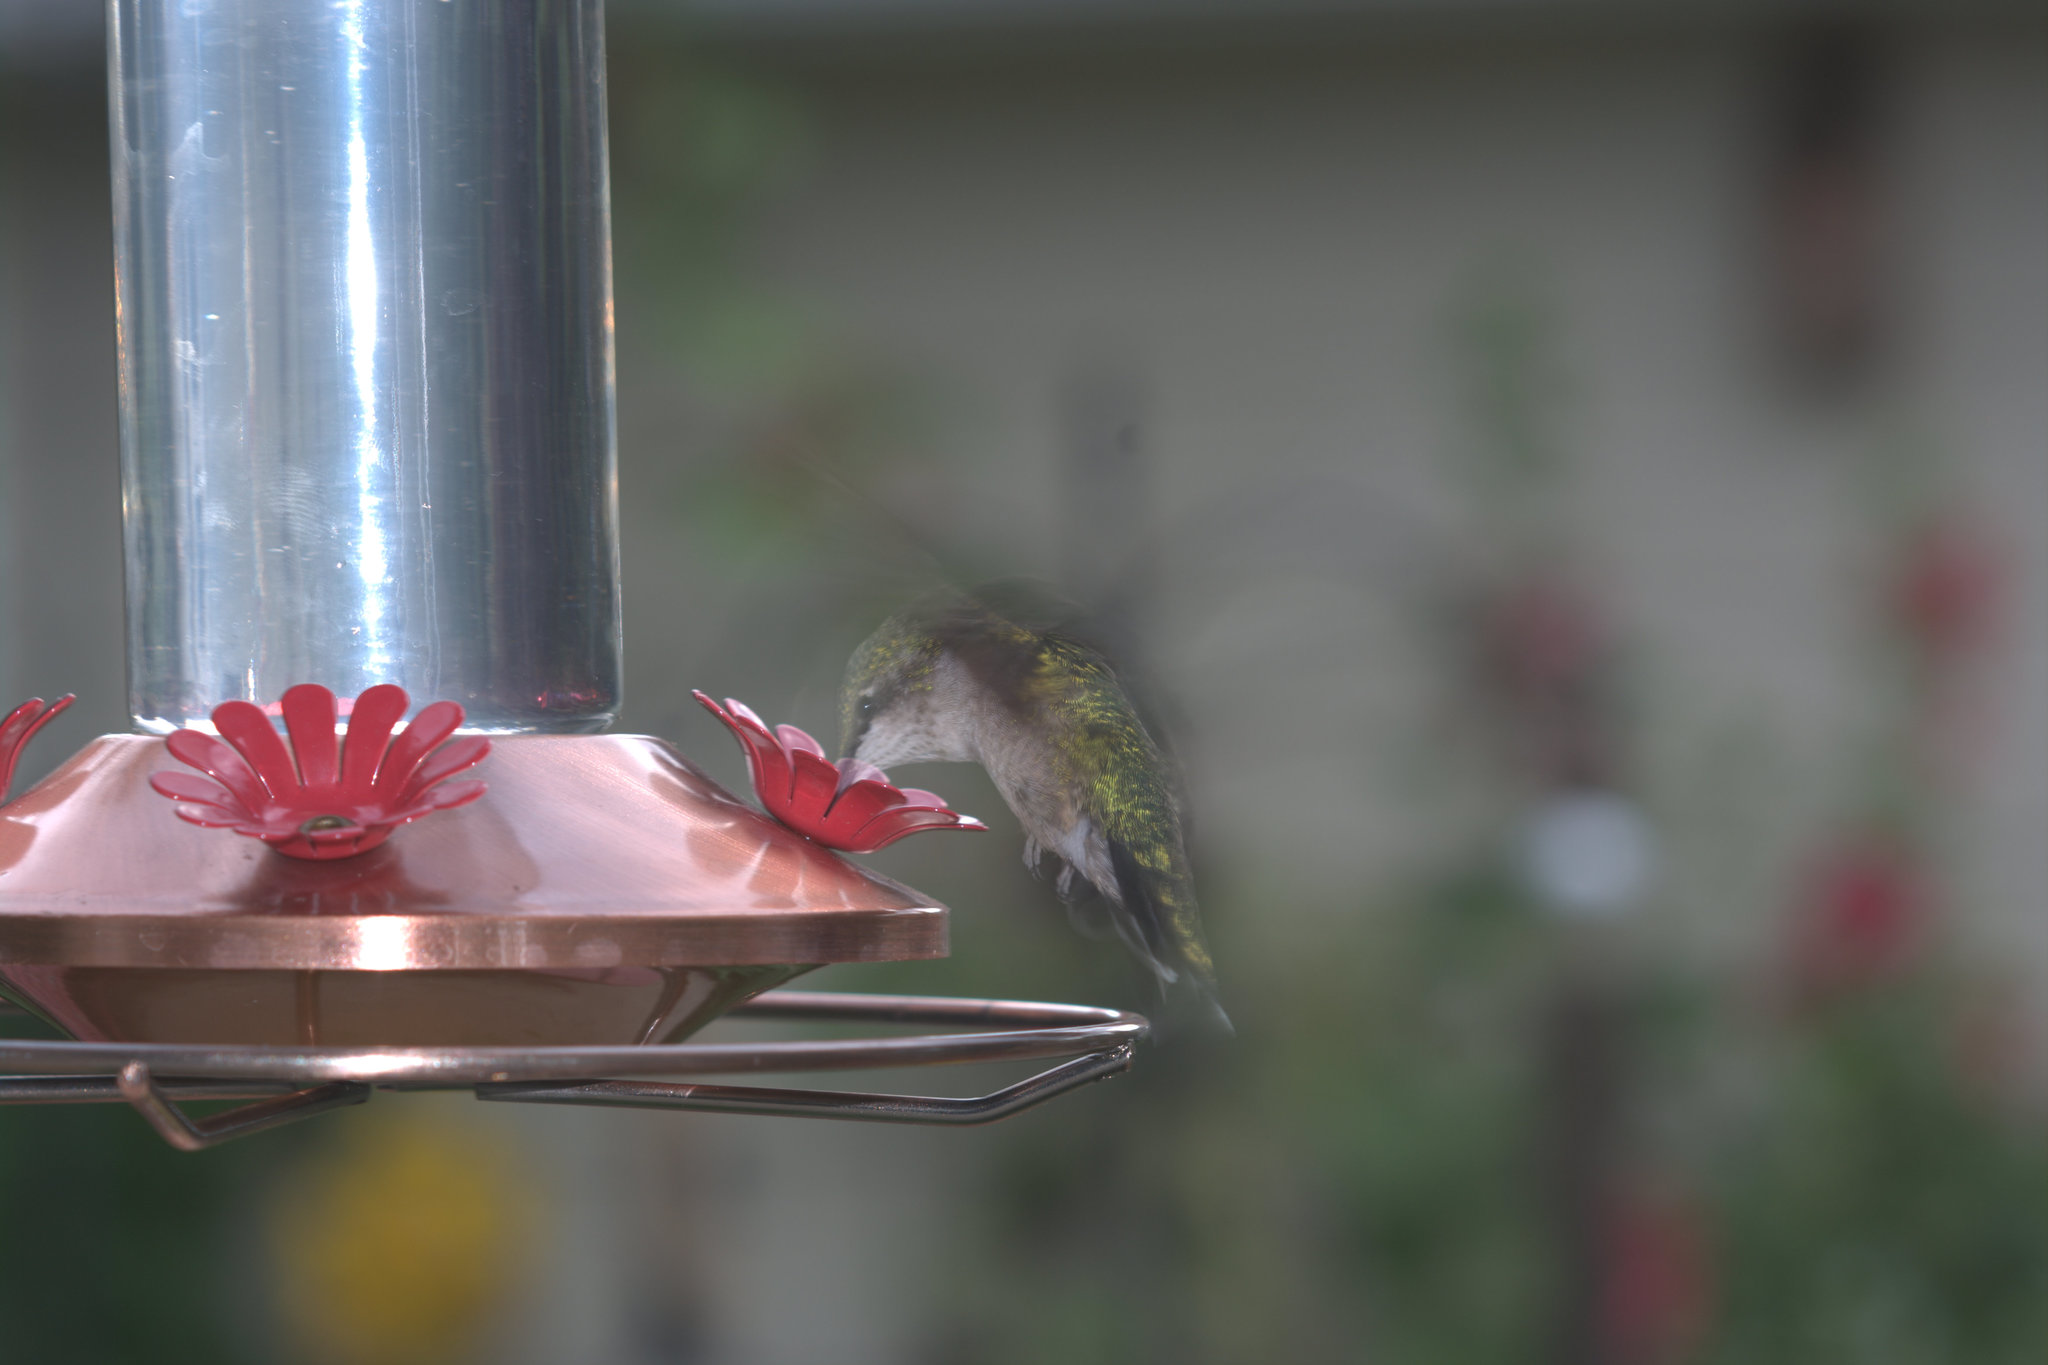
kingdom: Animalia
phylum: Chordata
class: Aves
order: Apodiformes
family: Trochilidae
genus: Archilochus
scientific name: Archilochus colubris
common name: Ruby-throated hummingbird
